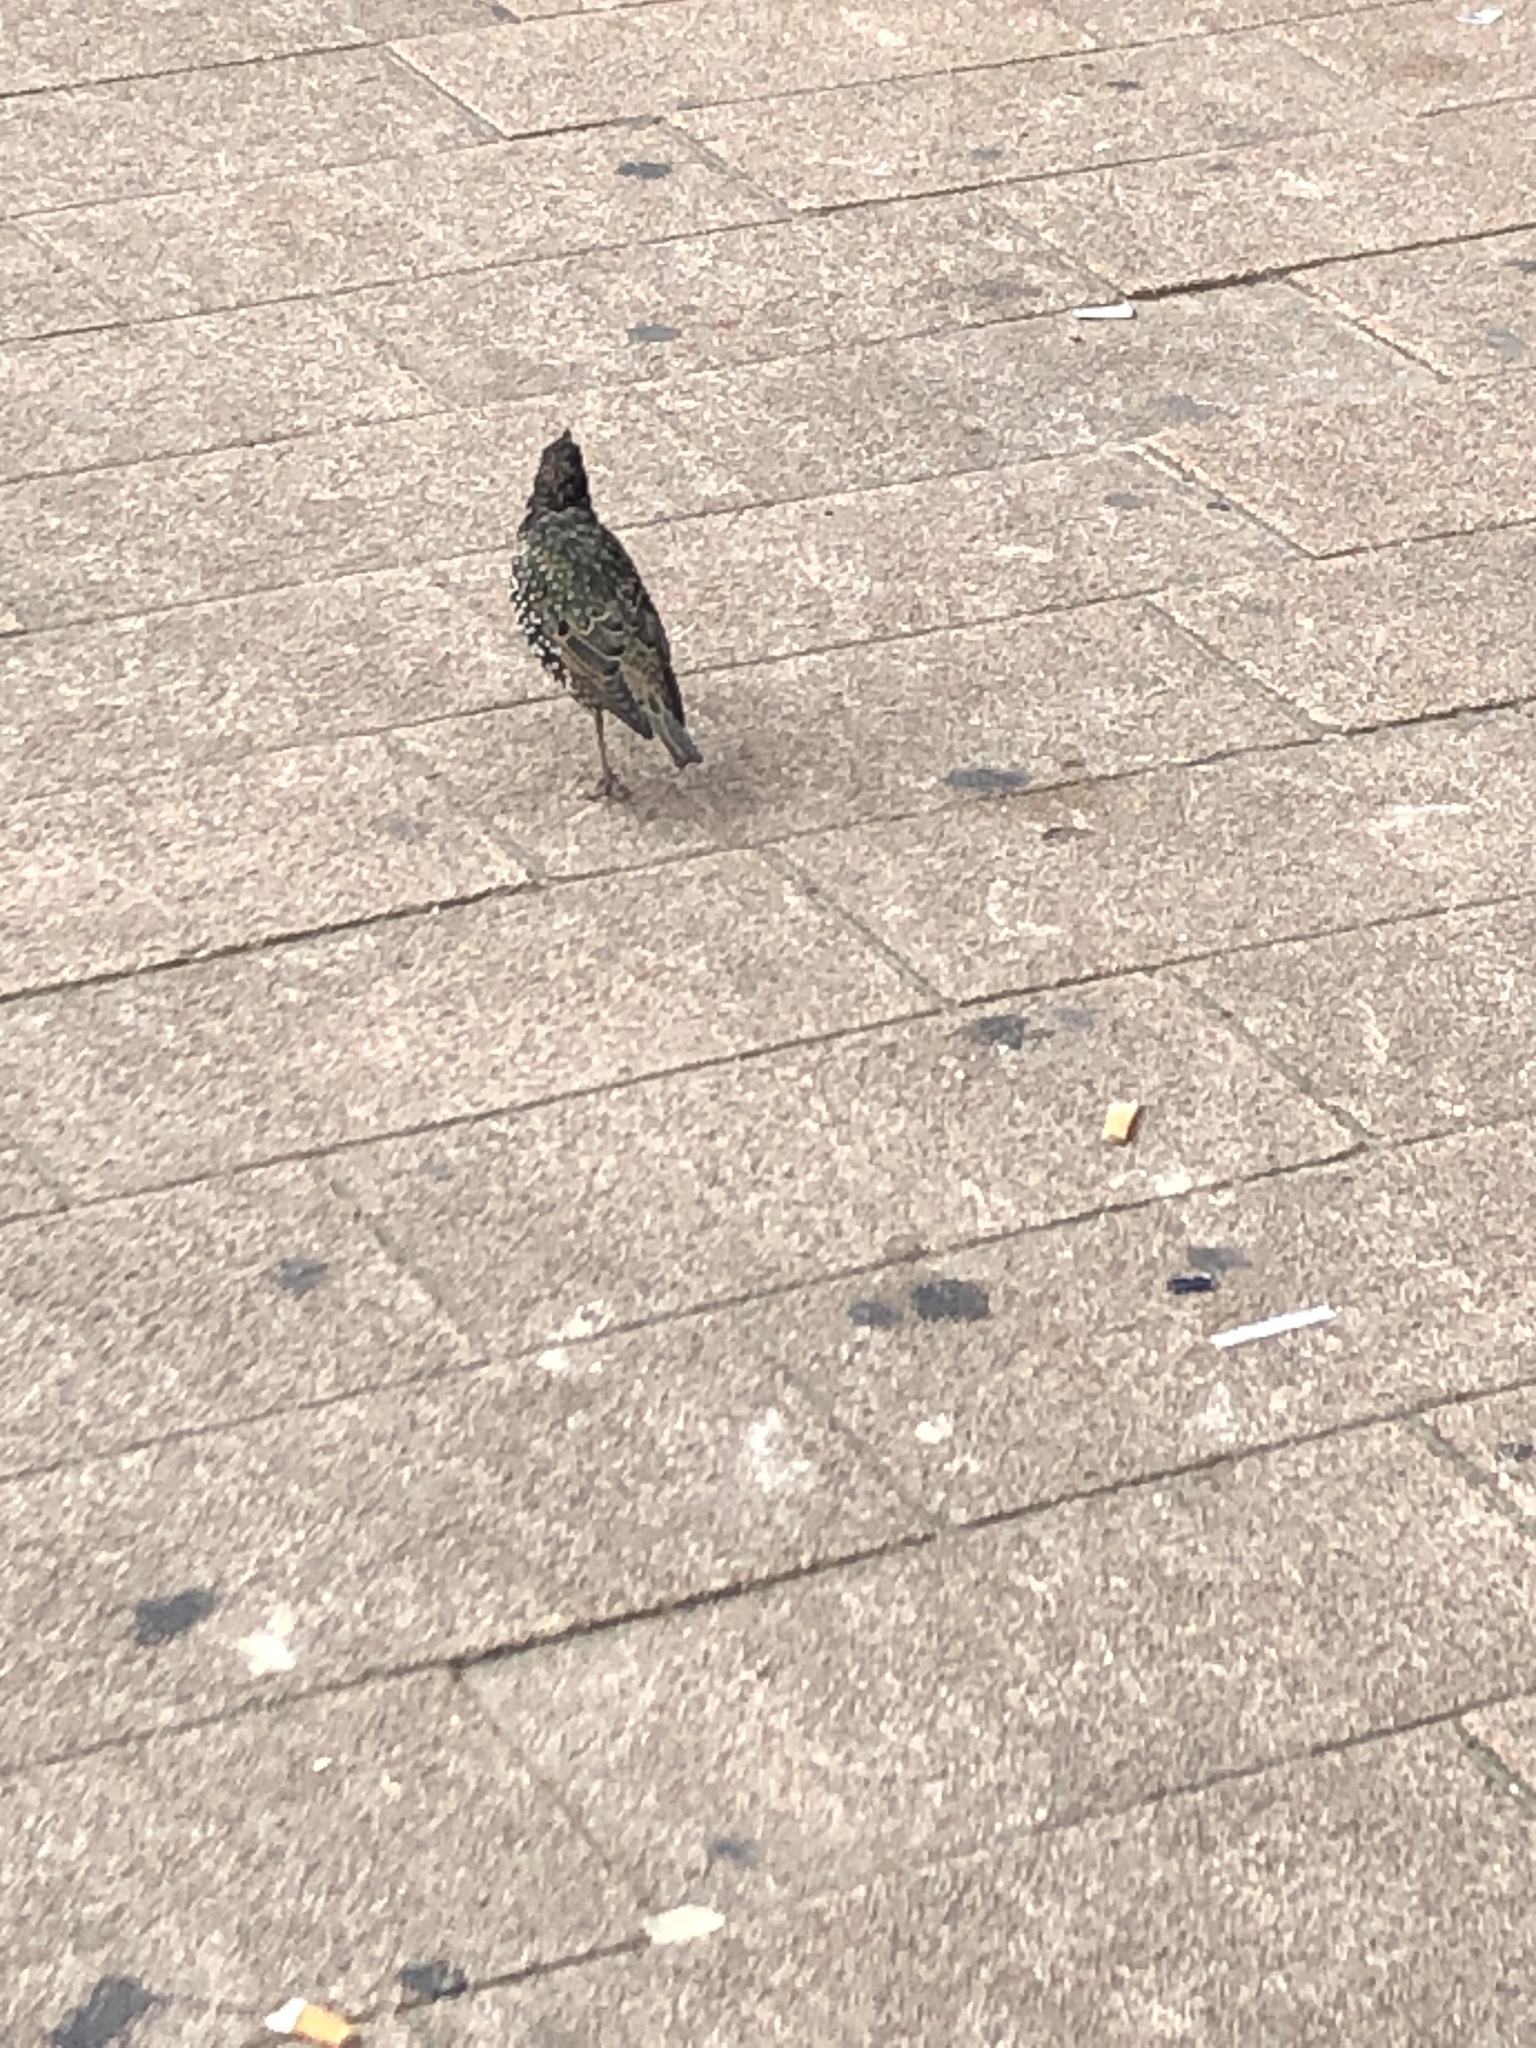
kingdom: Animalia
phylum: Chordata
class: Aves
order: Passeriformes
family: Sturnidae
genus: Sturnus
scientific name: Sturnus vulgaris
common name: Common starling
